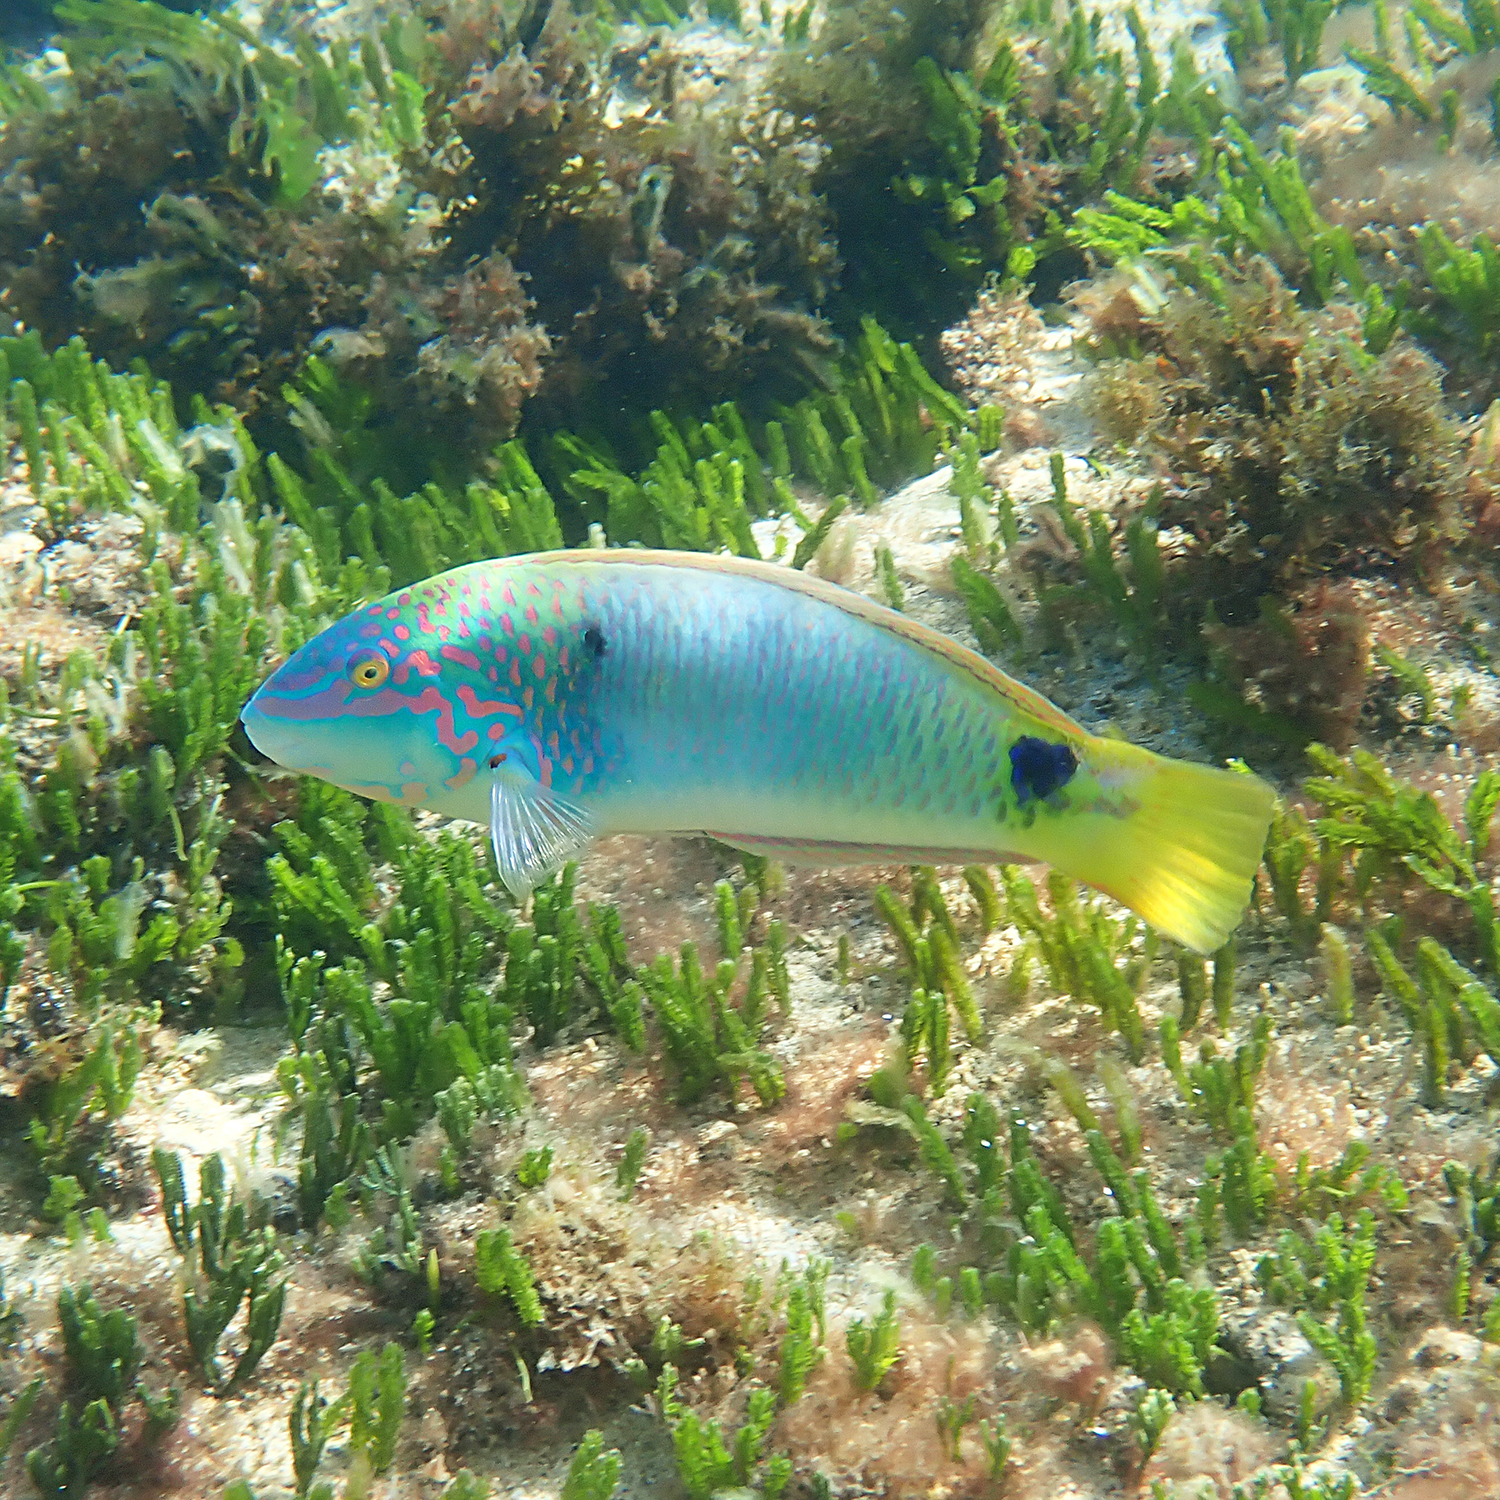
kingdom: Animalia
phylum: Chordata
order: Perciformes
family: Labridae
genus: Halichoeres
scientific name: Halichoeres trimaculatus
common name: Three-spot wrasse
